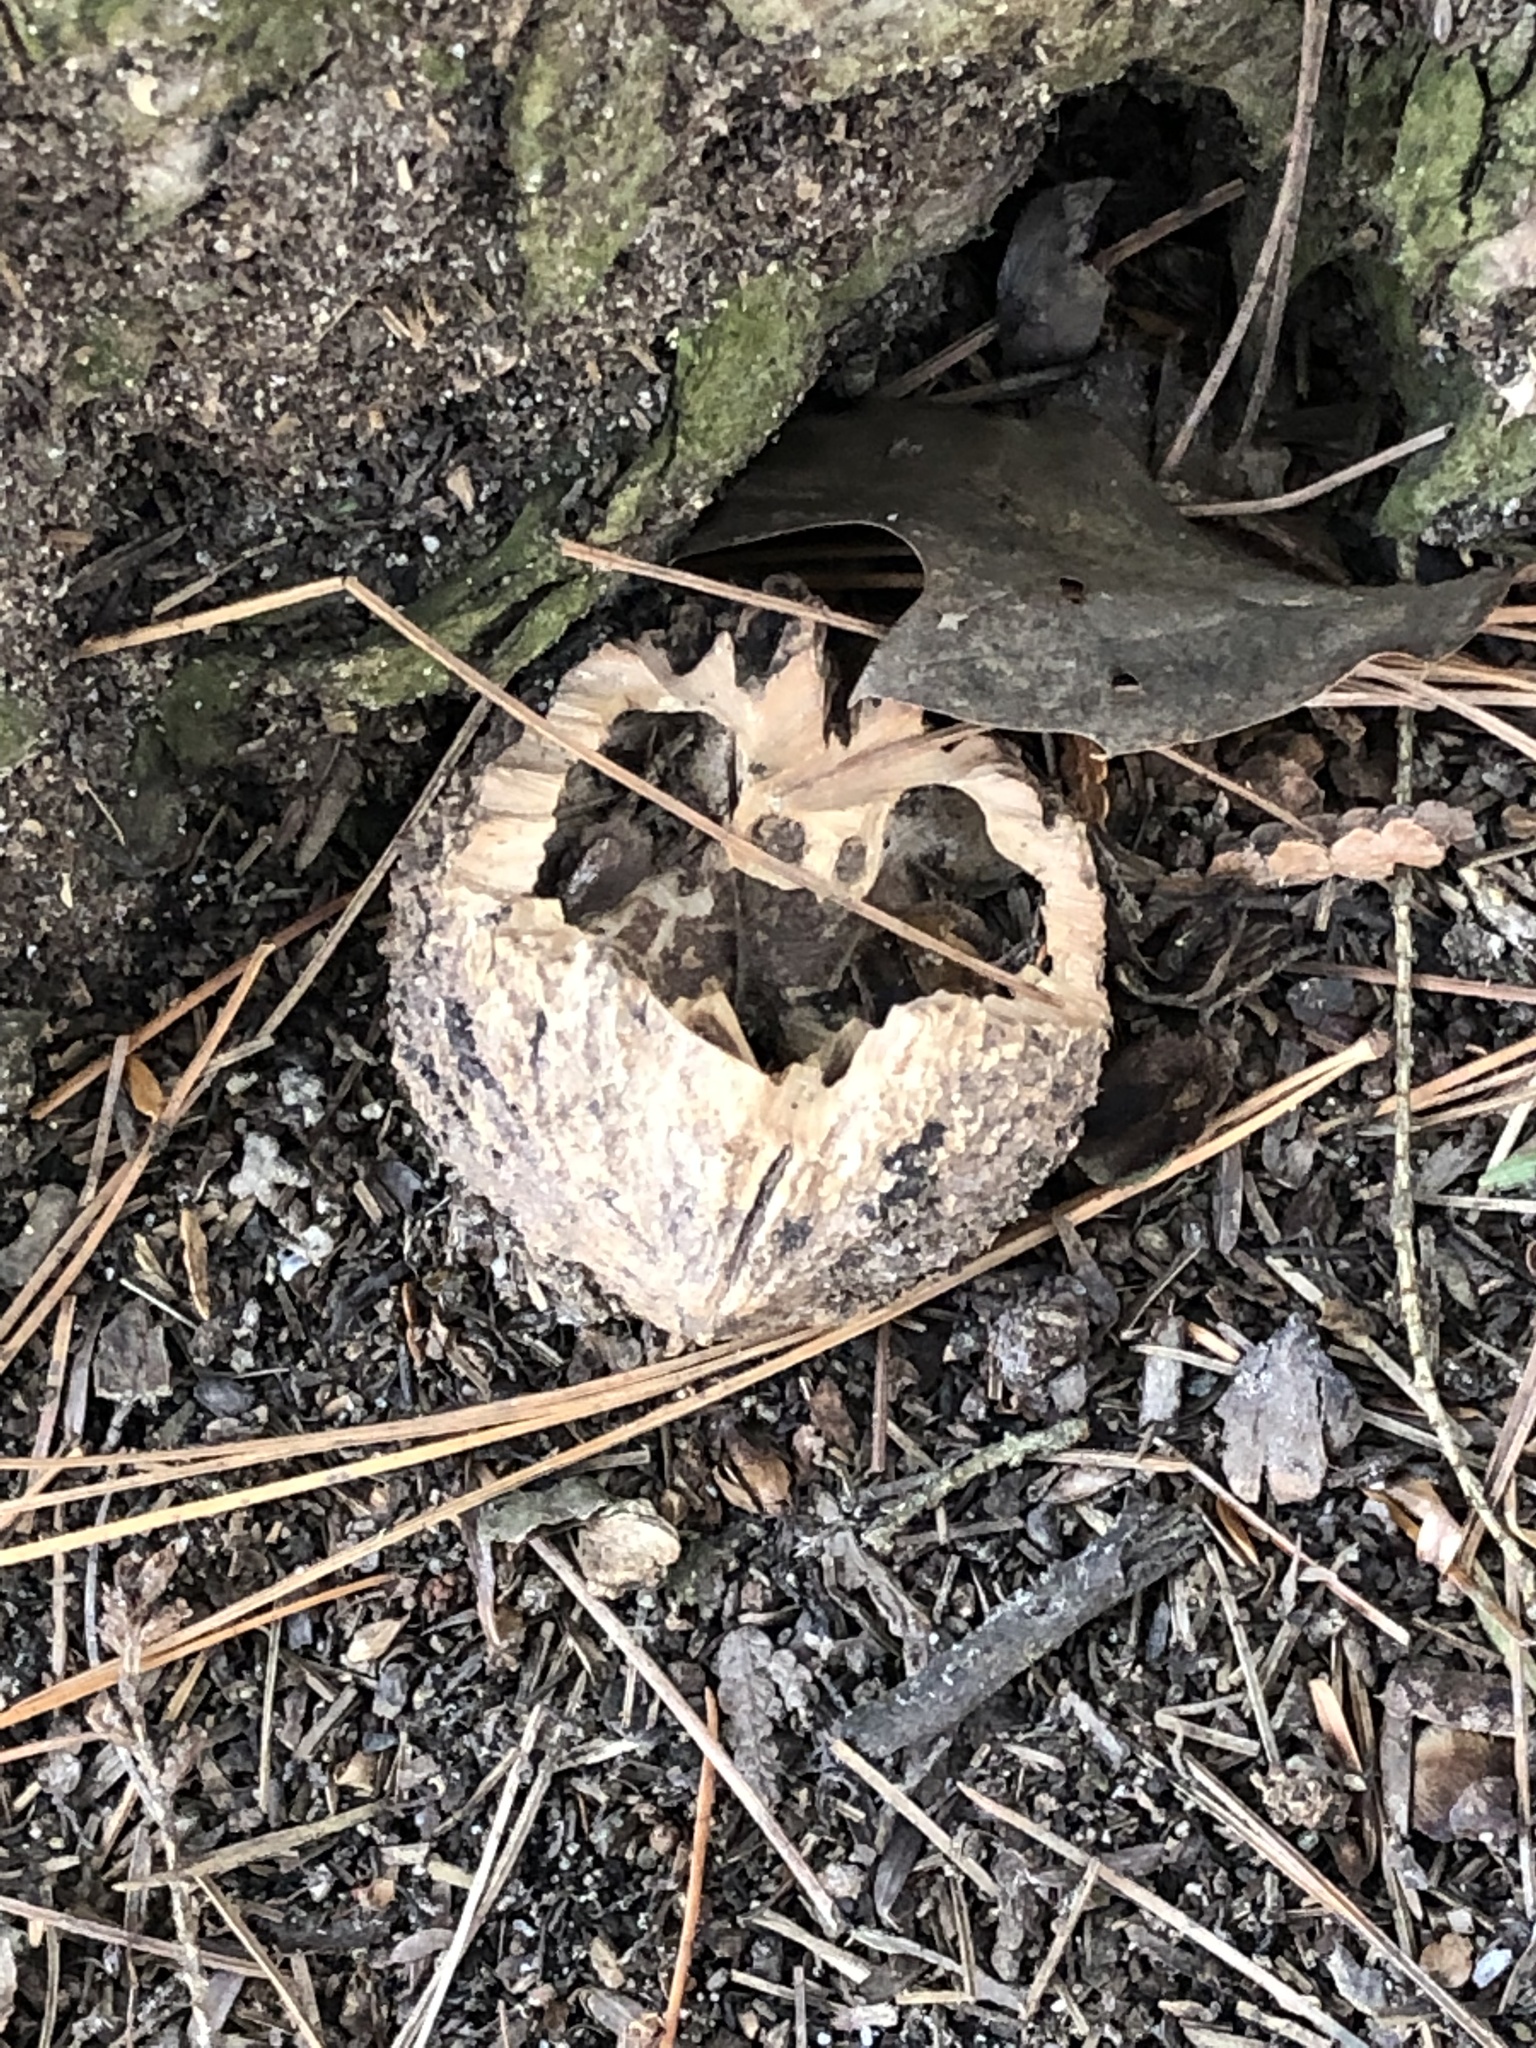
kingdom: Plantae
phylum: Tracheophyta
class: Magnoliopsida
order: Fagales
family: Juglandaceae
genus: Juglans
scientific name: Juglans nigra
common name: Black walnut
